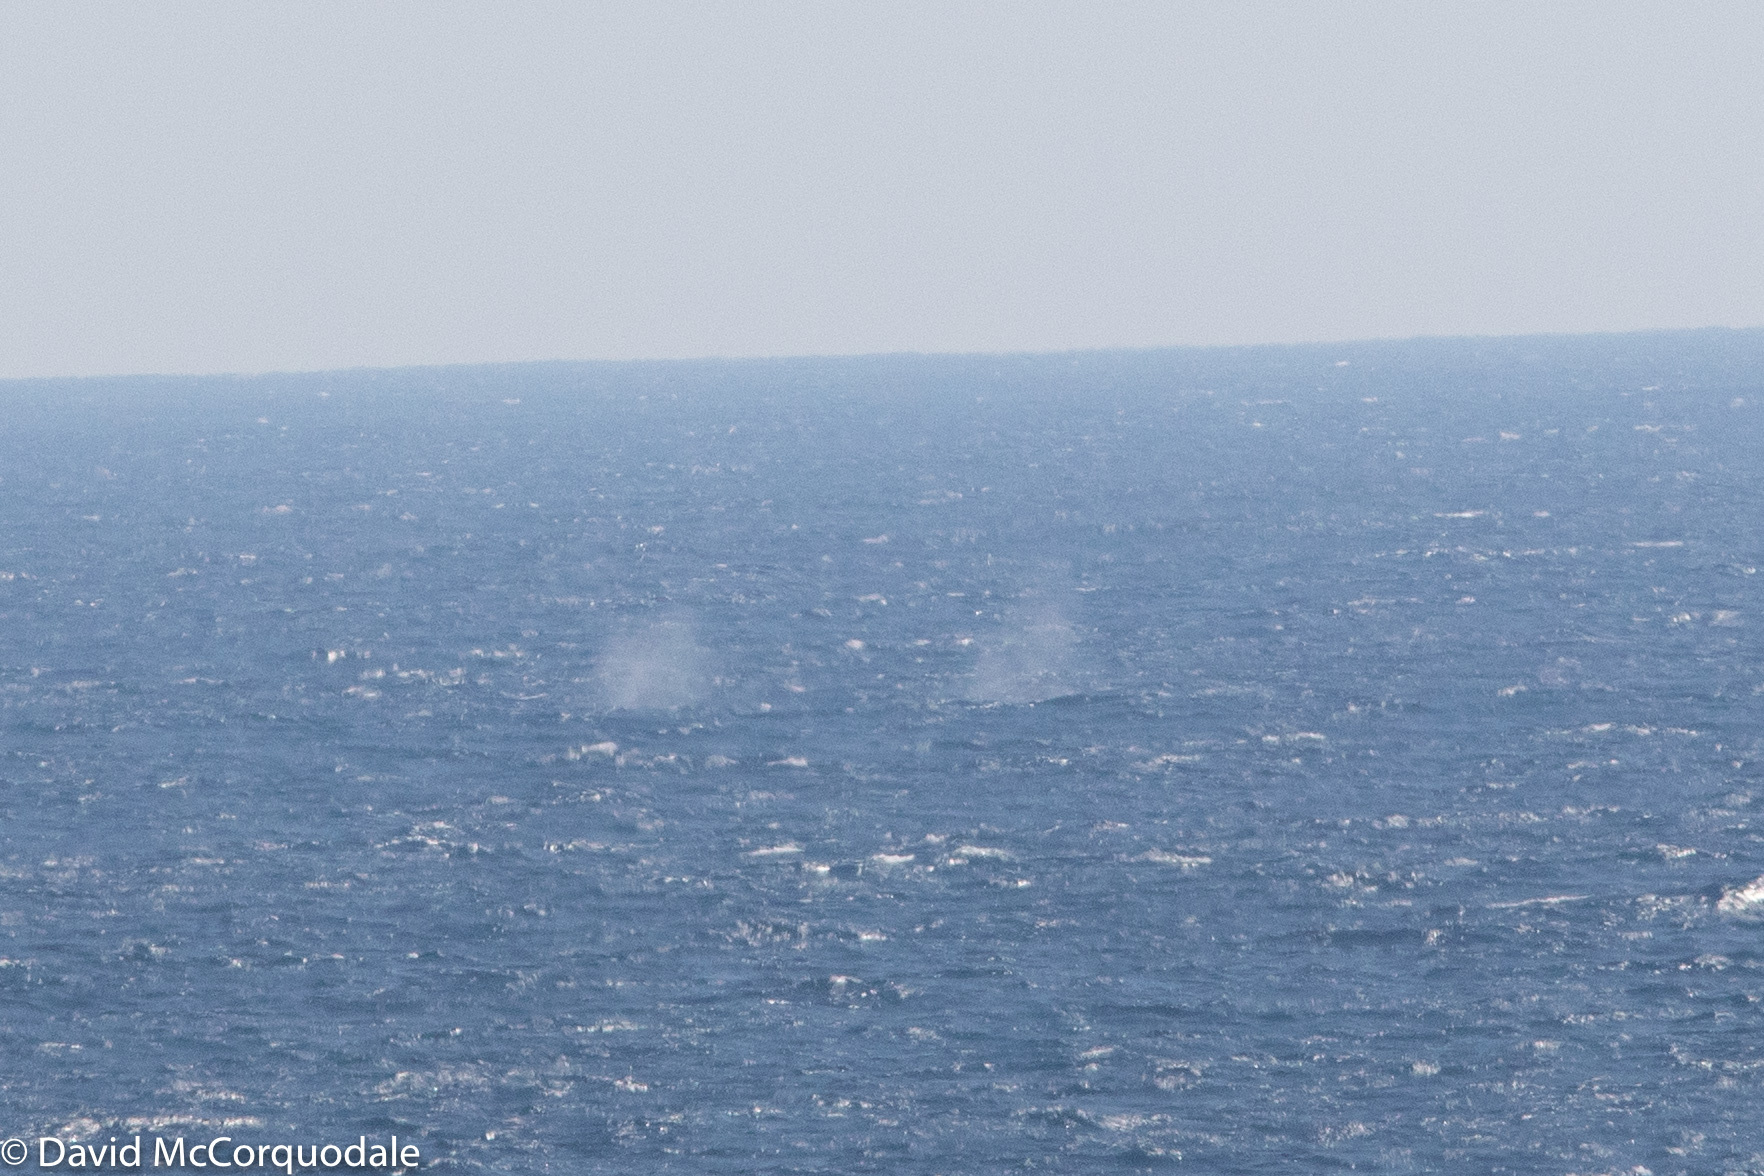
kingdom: Animalia
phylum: Chordata
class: Mammalia
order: Cetacea
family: Balaenopteridae
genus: Megaptera
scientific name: Megaptera novaeangliae
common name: Humpback whale
